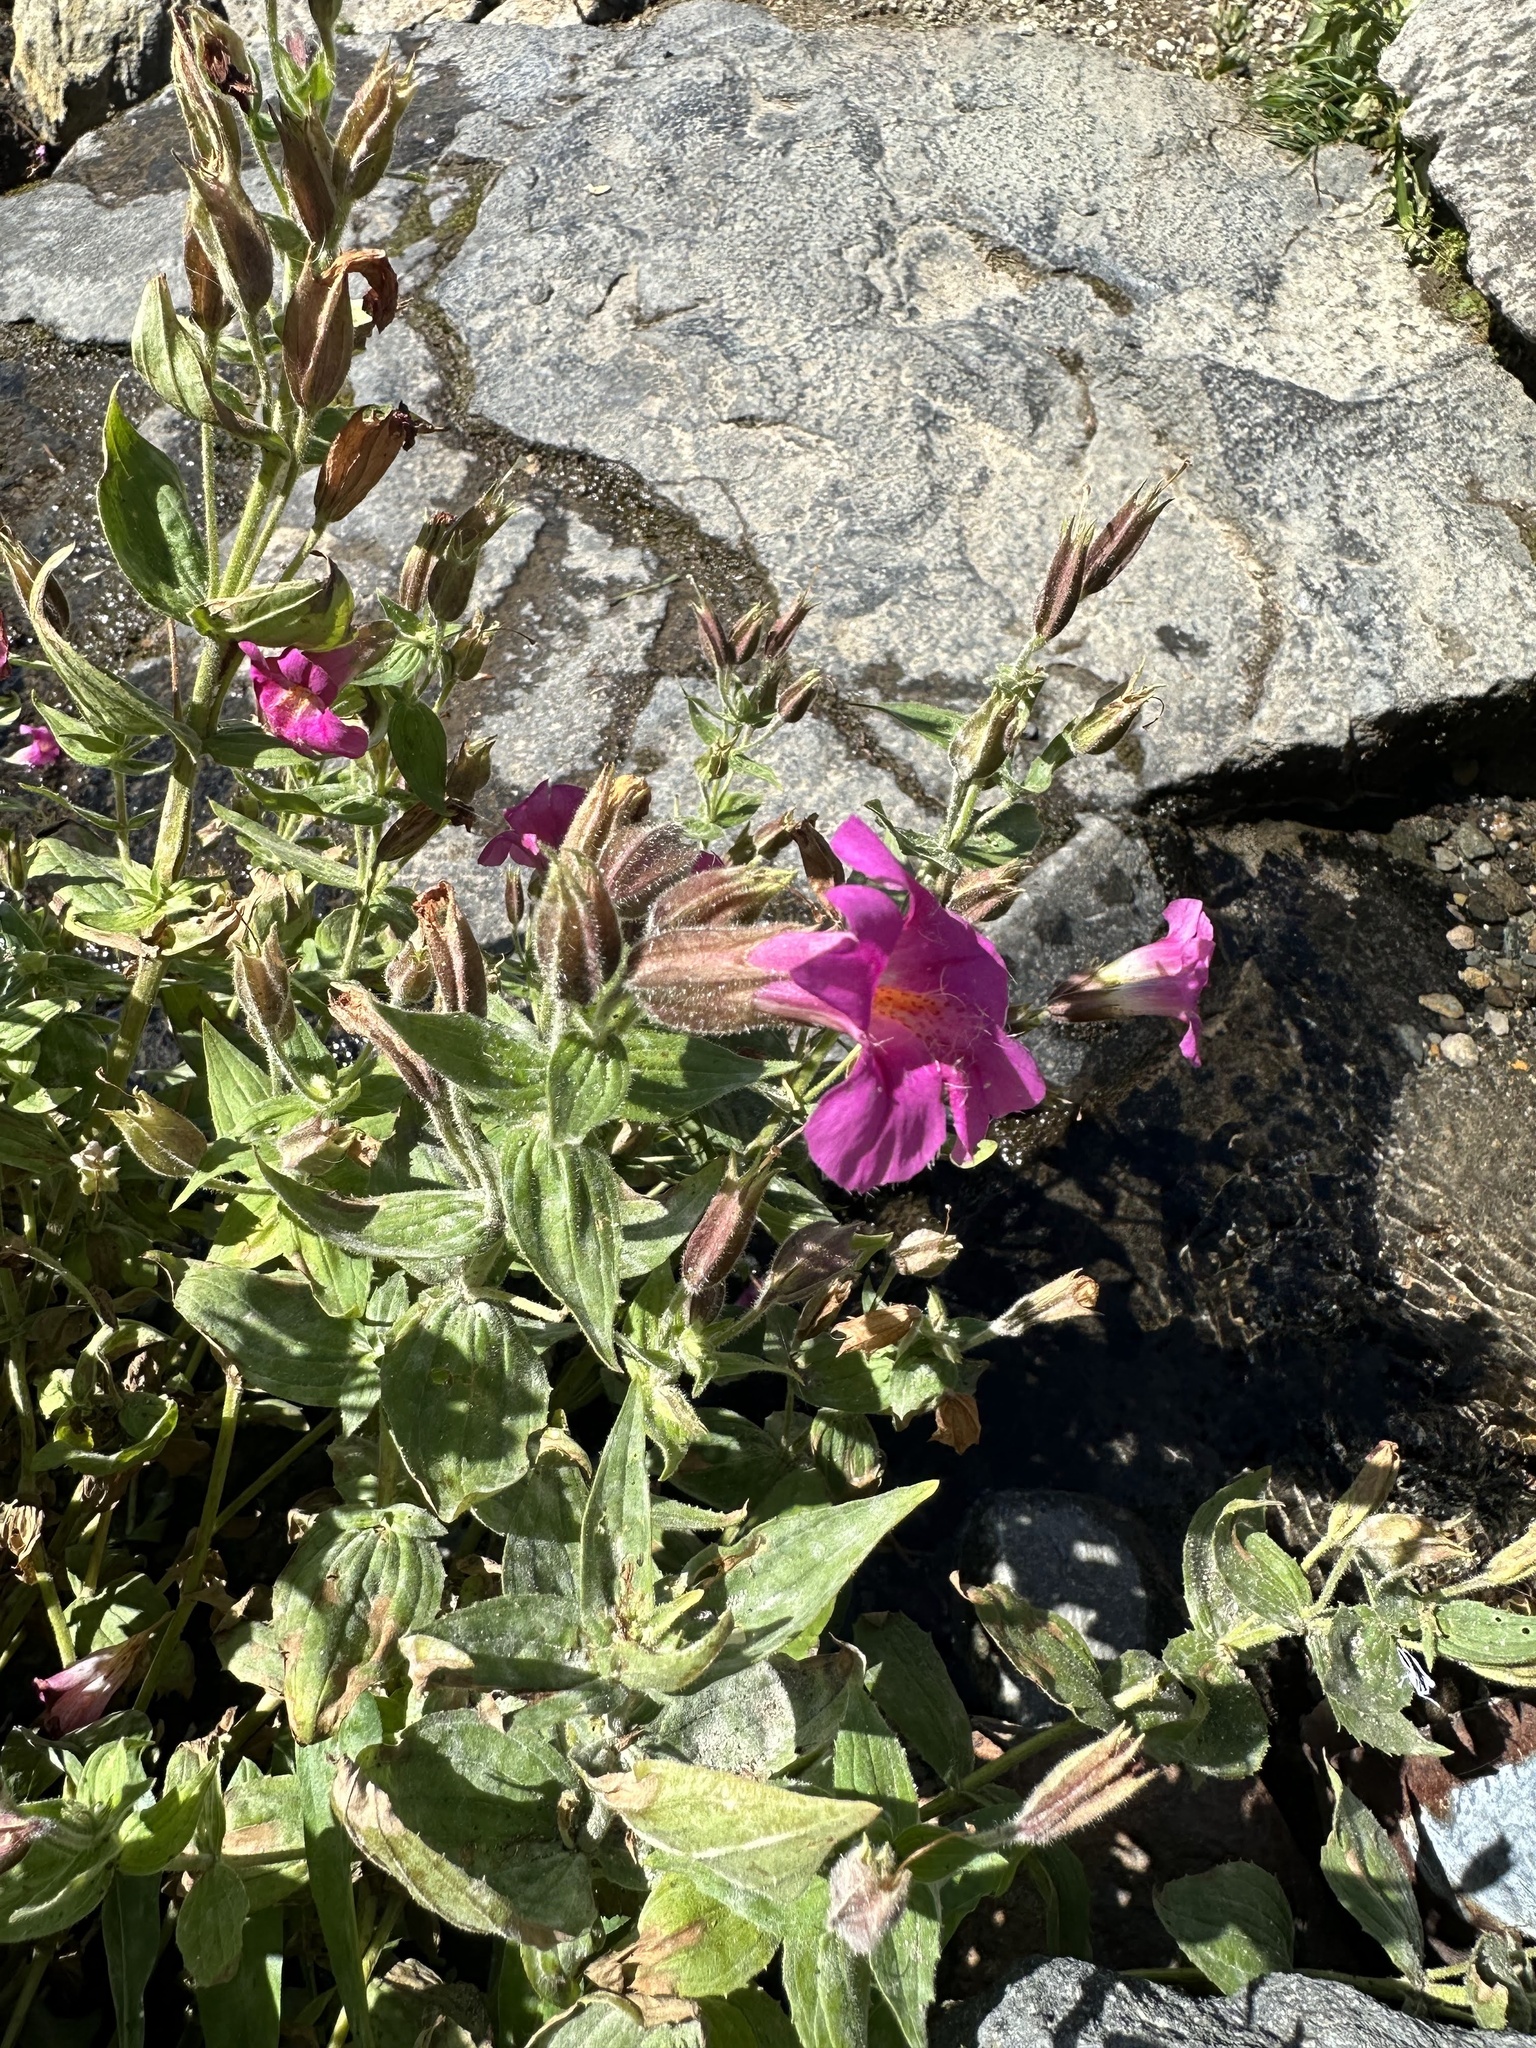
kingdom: Plantae
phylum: Tracheophyta
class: Magnoliopsida
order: Lamiales
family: Phrymaceae
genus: Erythranthe
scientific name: Erythranthe lewisii
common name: Lewis's monkey-flower
